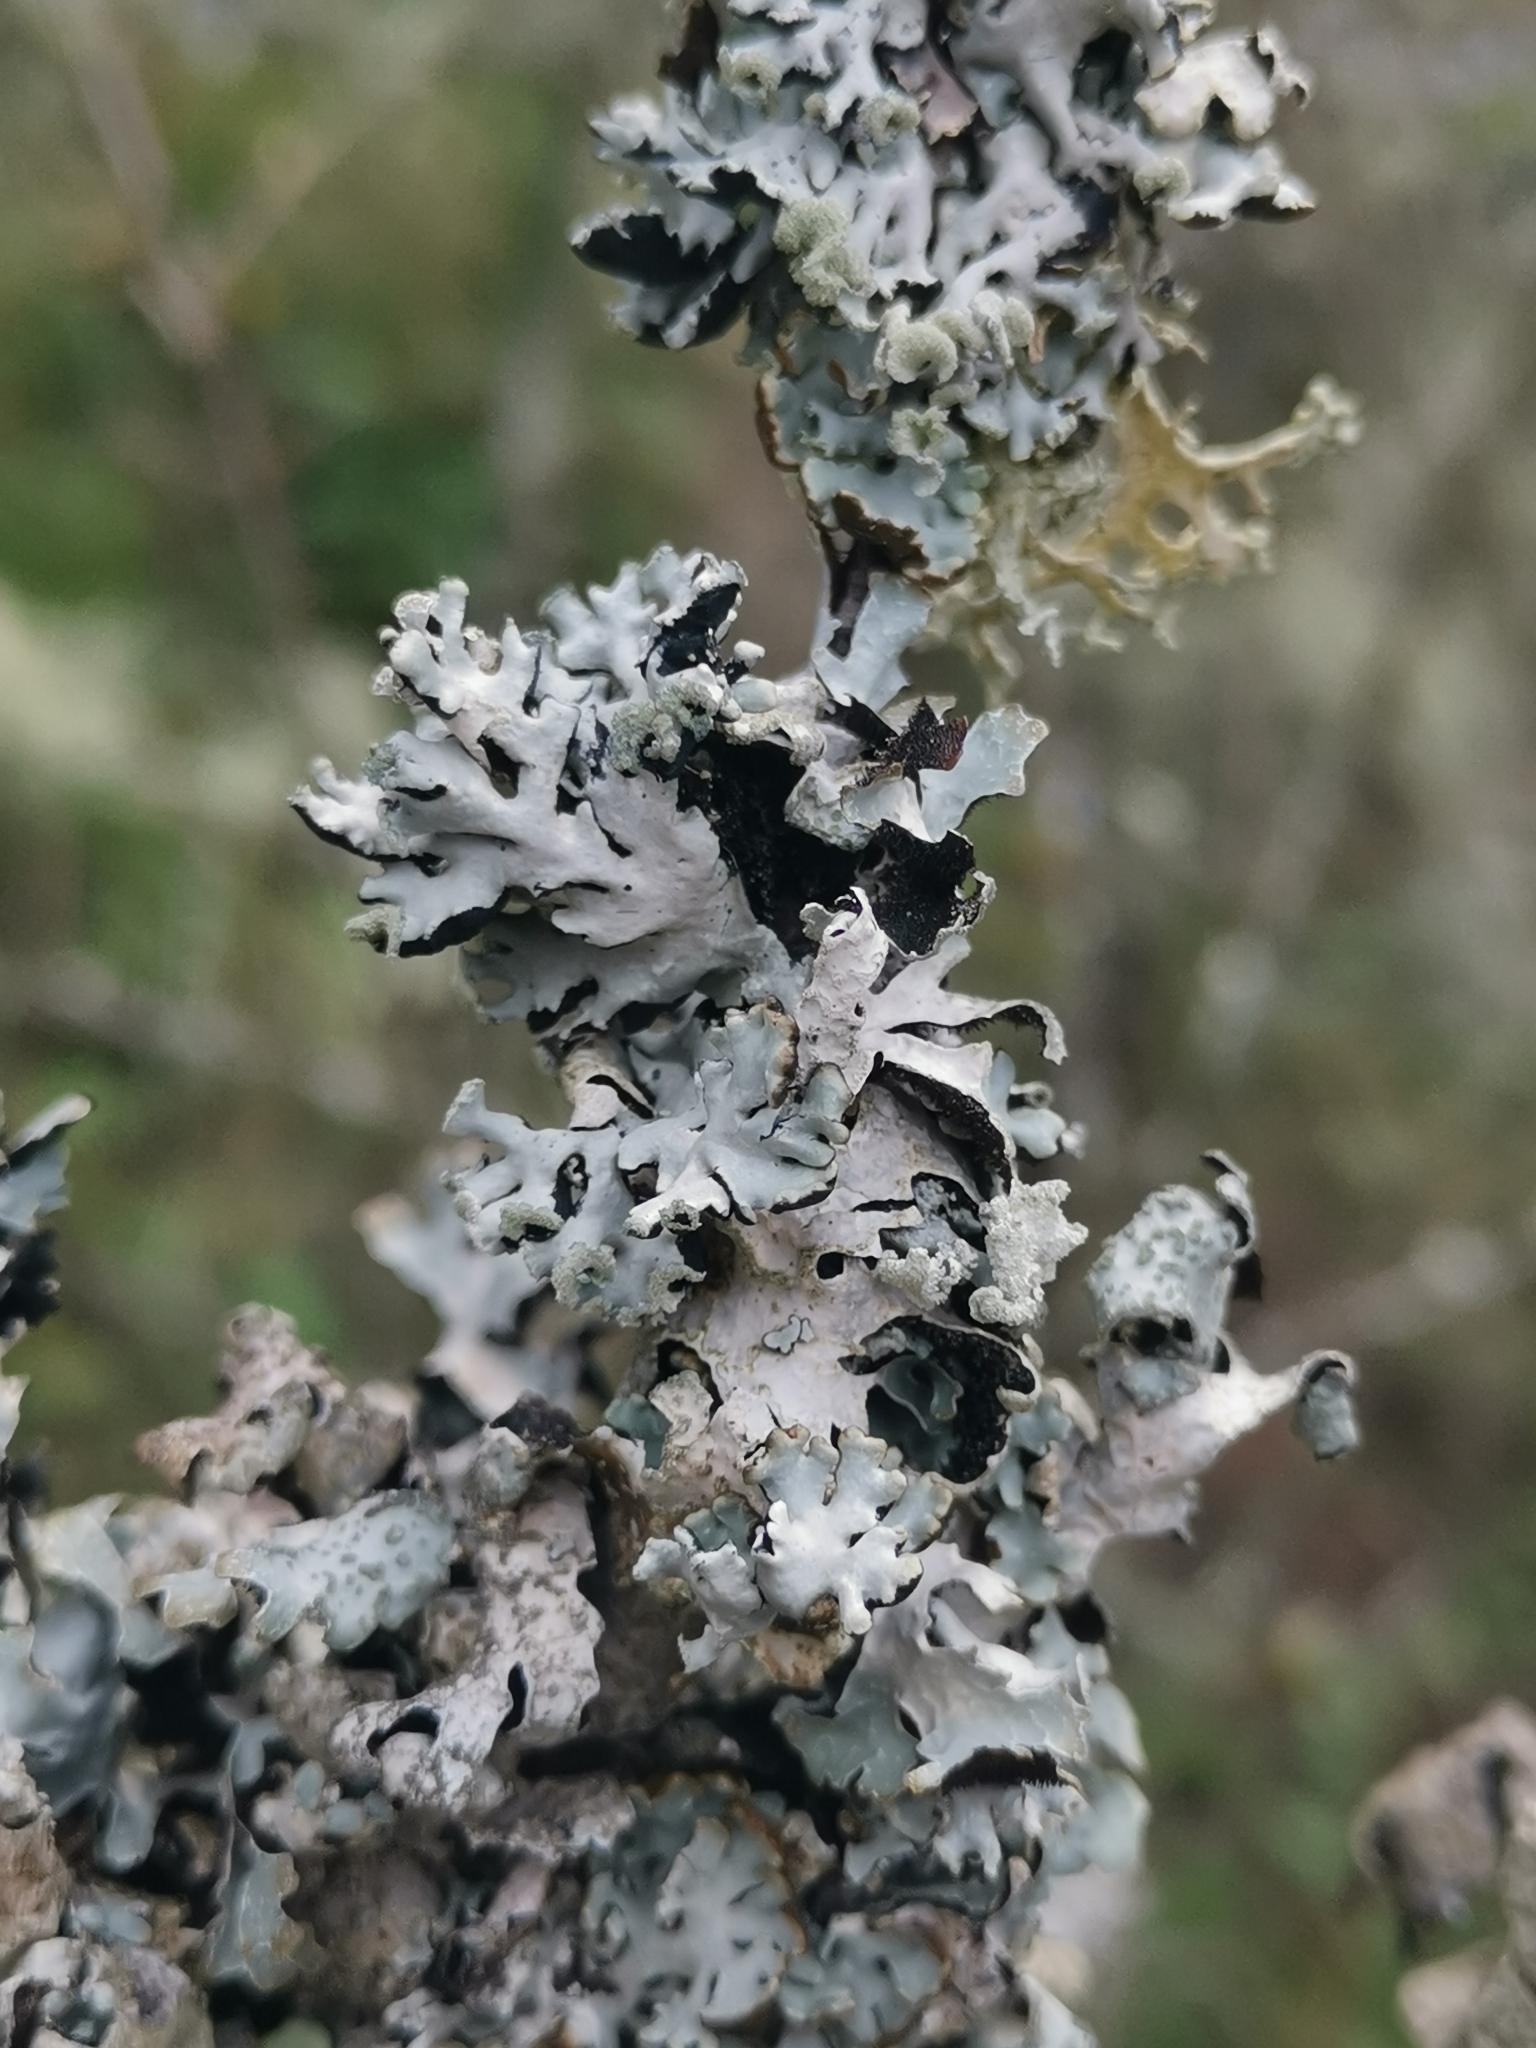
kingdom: Fungi
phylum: Ascomycota
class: Lecanoromycetes
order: Lecanorales
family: Parmeliaceae
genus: Hypogymnia
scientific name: Hypogymnia physodes
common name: Dark crottle
